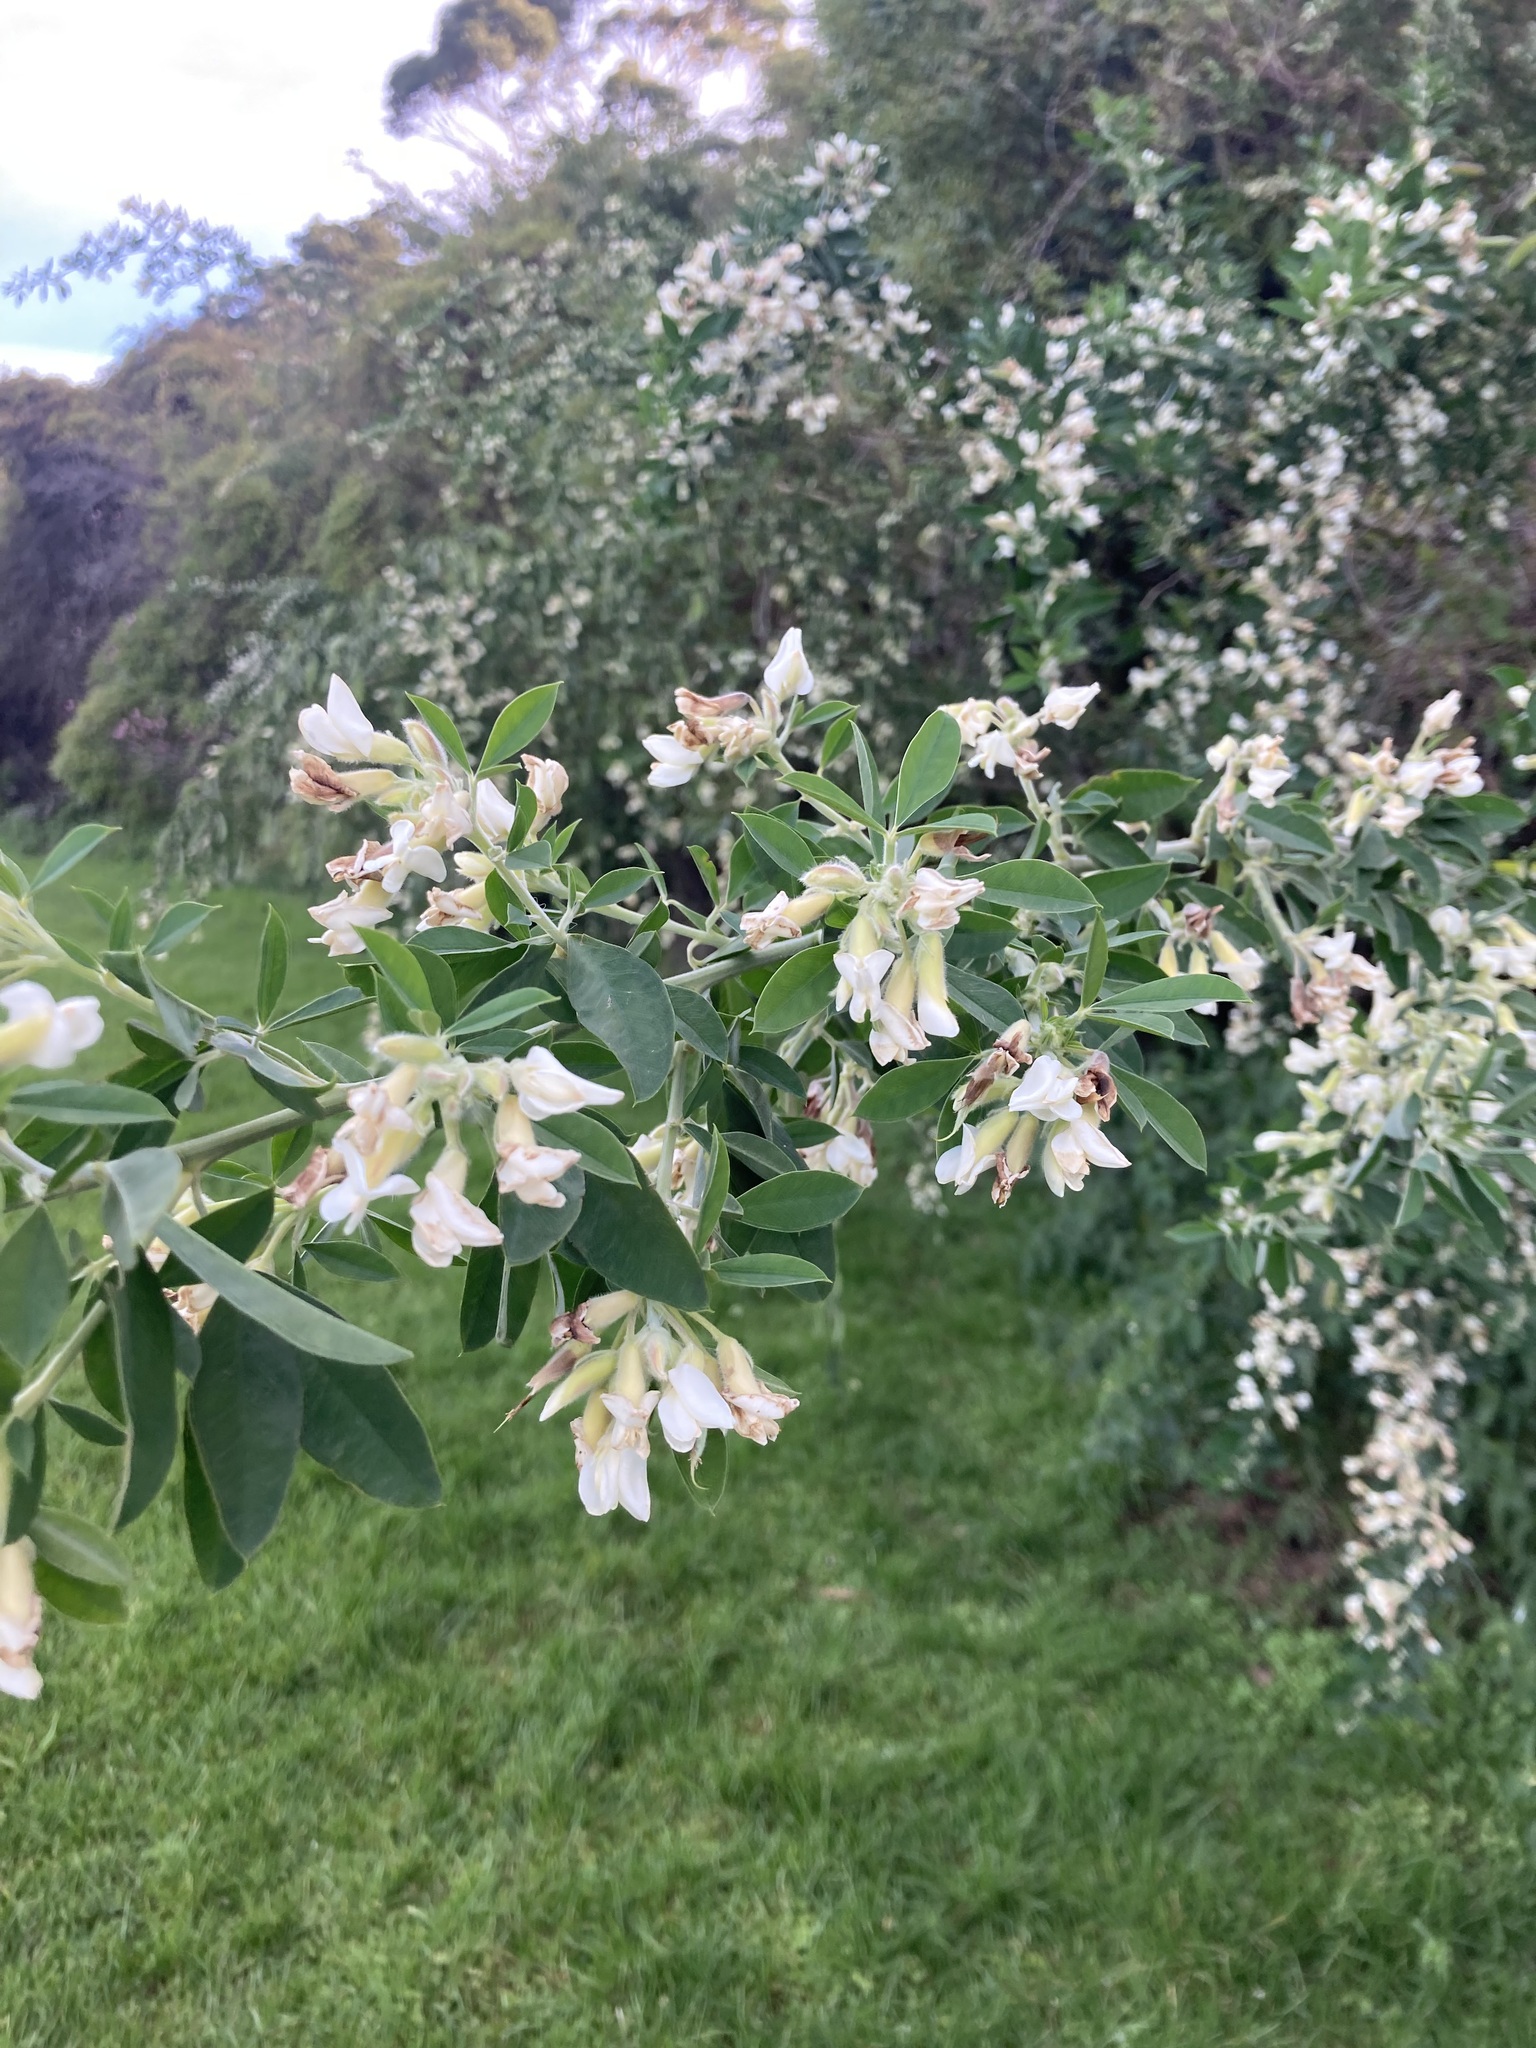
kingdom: Plantae
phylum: Tracheophyta
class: Magnoliopsida
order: Fabales
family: Fabaceae
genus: Chamaecytisus
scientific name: Chamaecytisus prolifer
